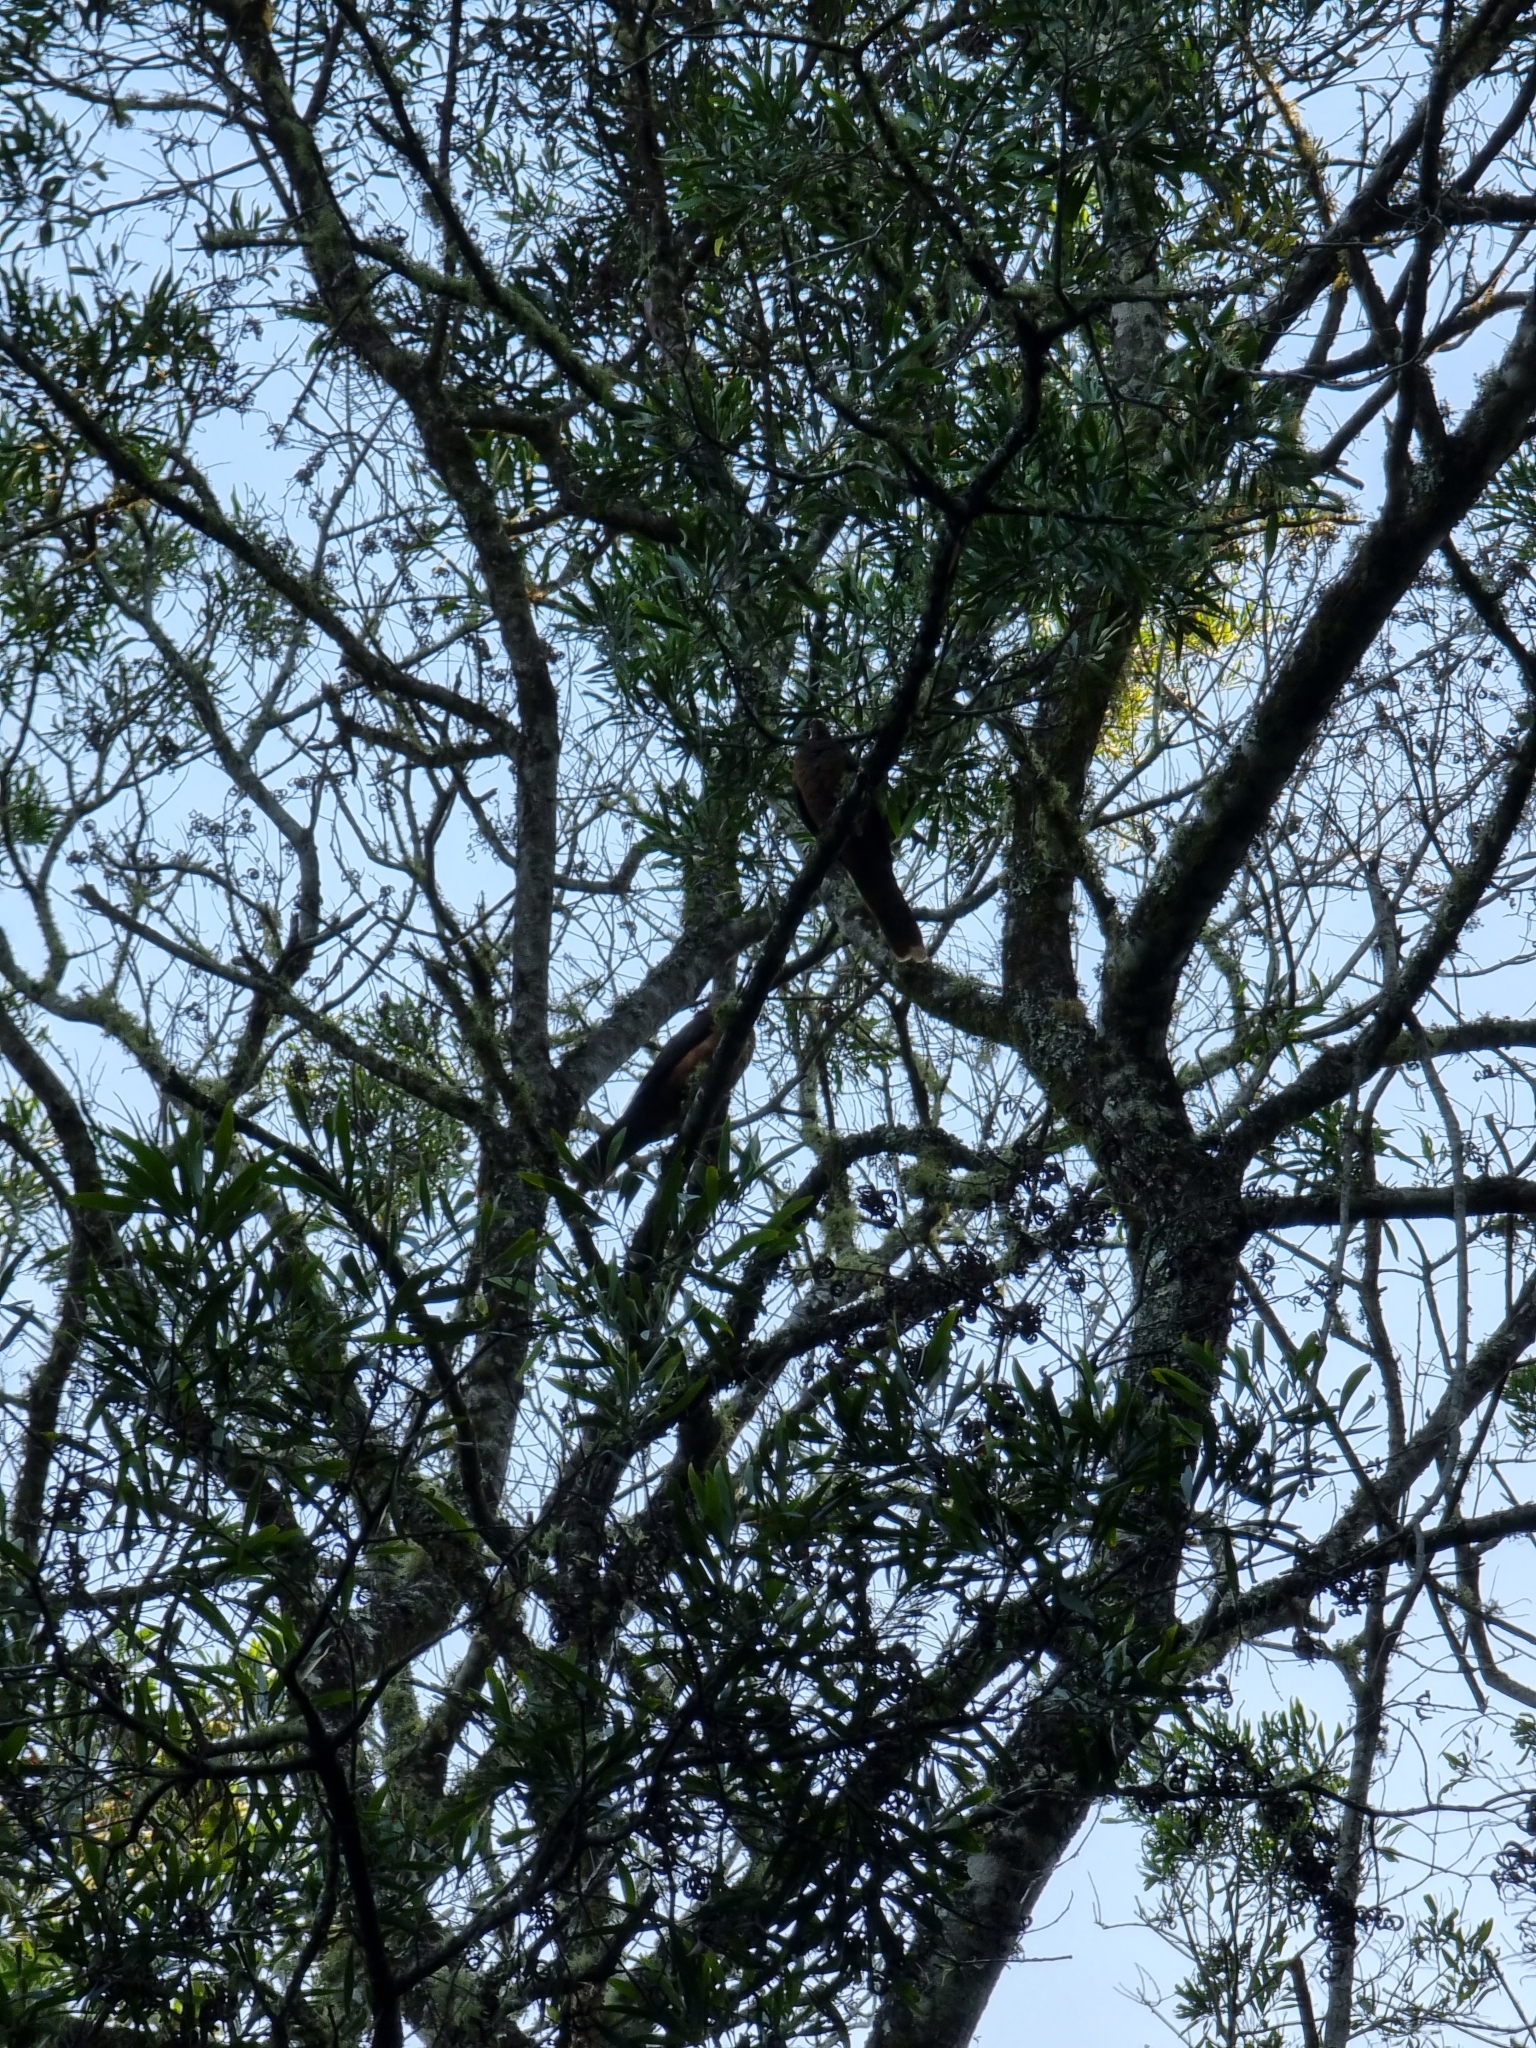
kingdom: Animalia
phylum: Chordata
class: Aves
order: Columbiformes
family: Columbidae
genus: Macropygia
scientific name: Macropygia phasianella
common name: Brown cuckoo-dove
